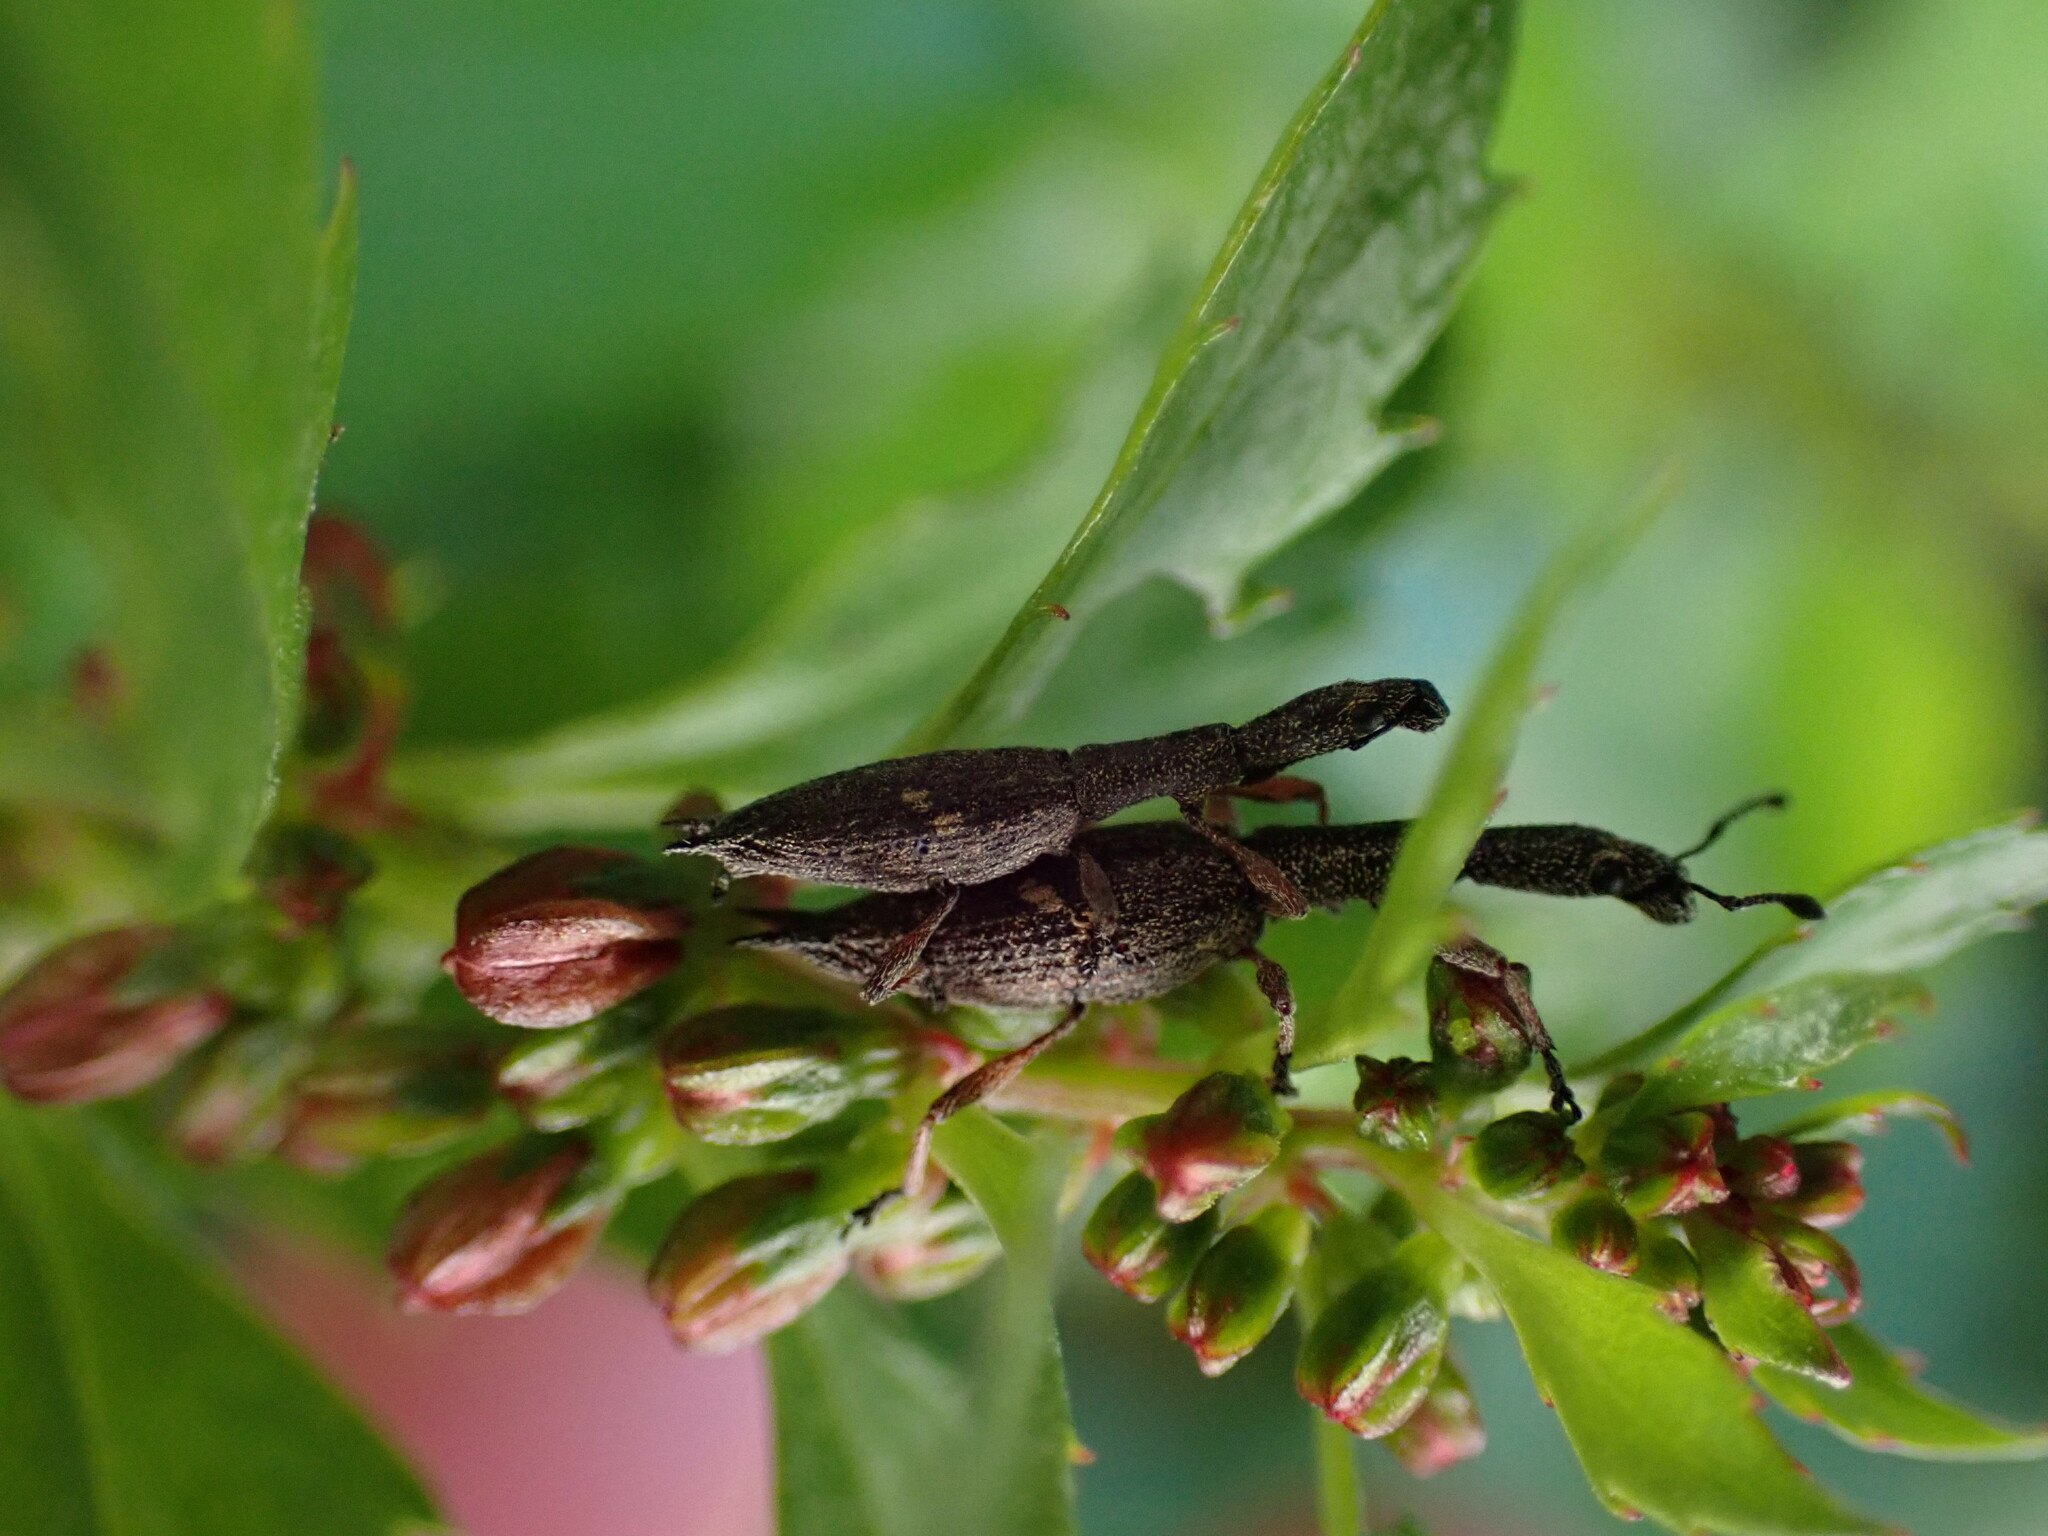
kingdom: Animalia
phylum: Arthropoda
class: Insecta
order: Coleoptera
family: Curculionidae
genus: Rhadinosomus
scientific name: Rhadinosomus acuminatus
